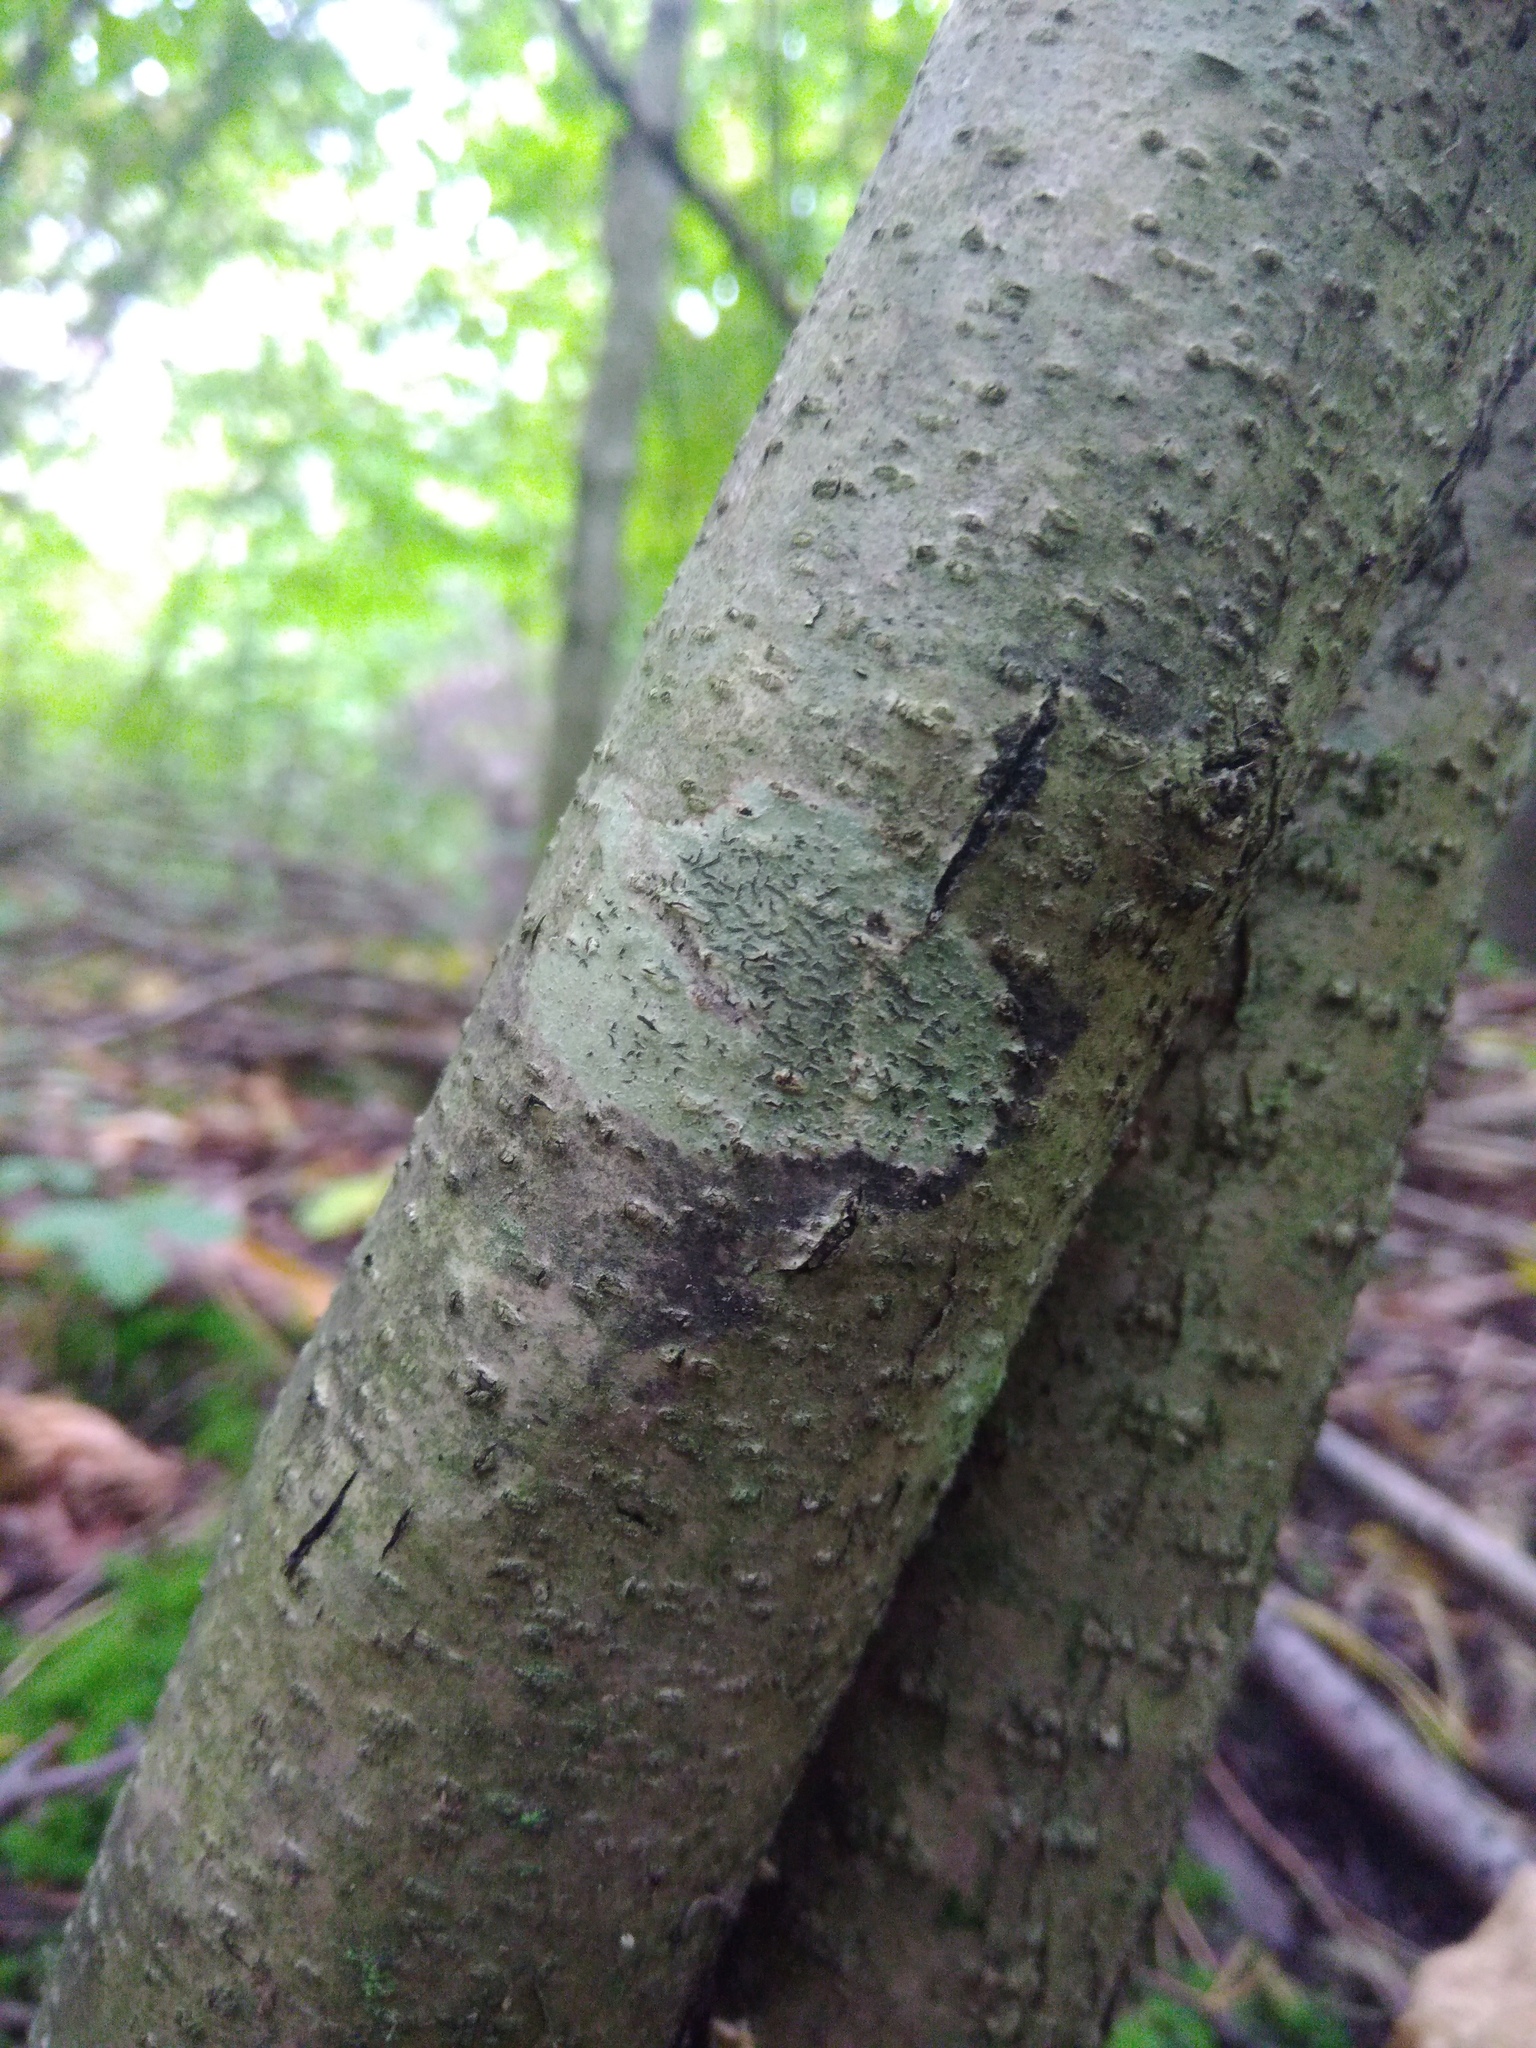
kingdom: Fungi
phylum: Ascomycota
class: Lecanoromycetes
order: Ostropales
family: Graphidaceae
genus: Graphis
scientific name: Graphis scripta
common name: Script lichen
